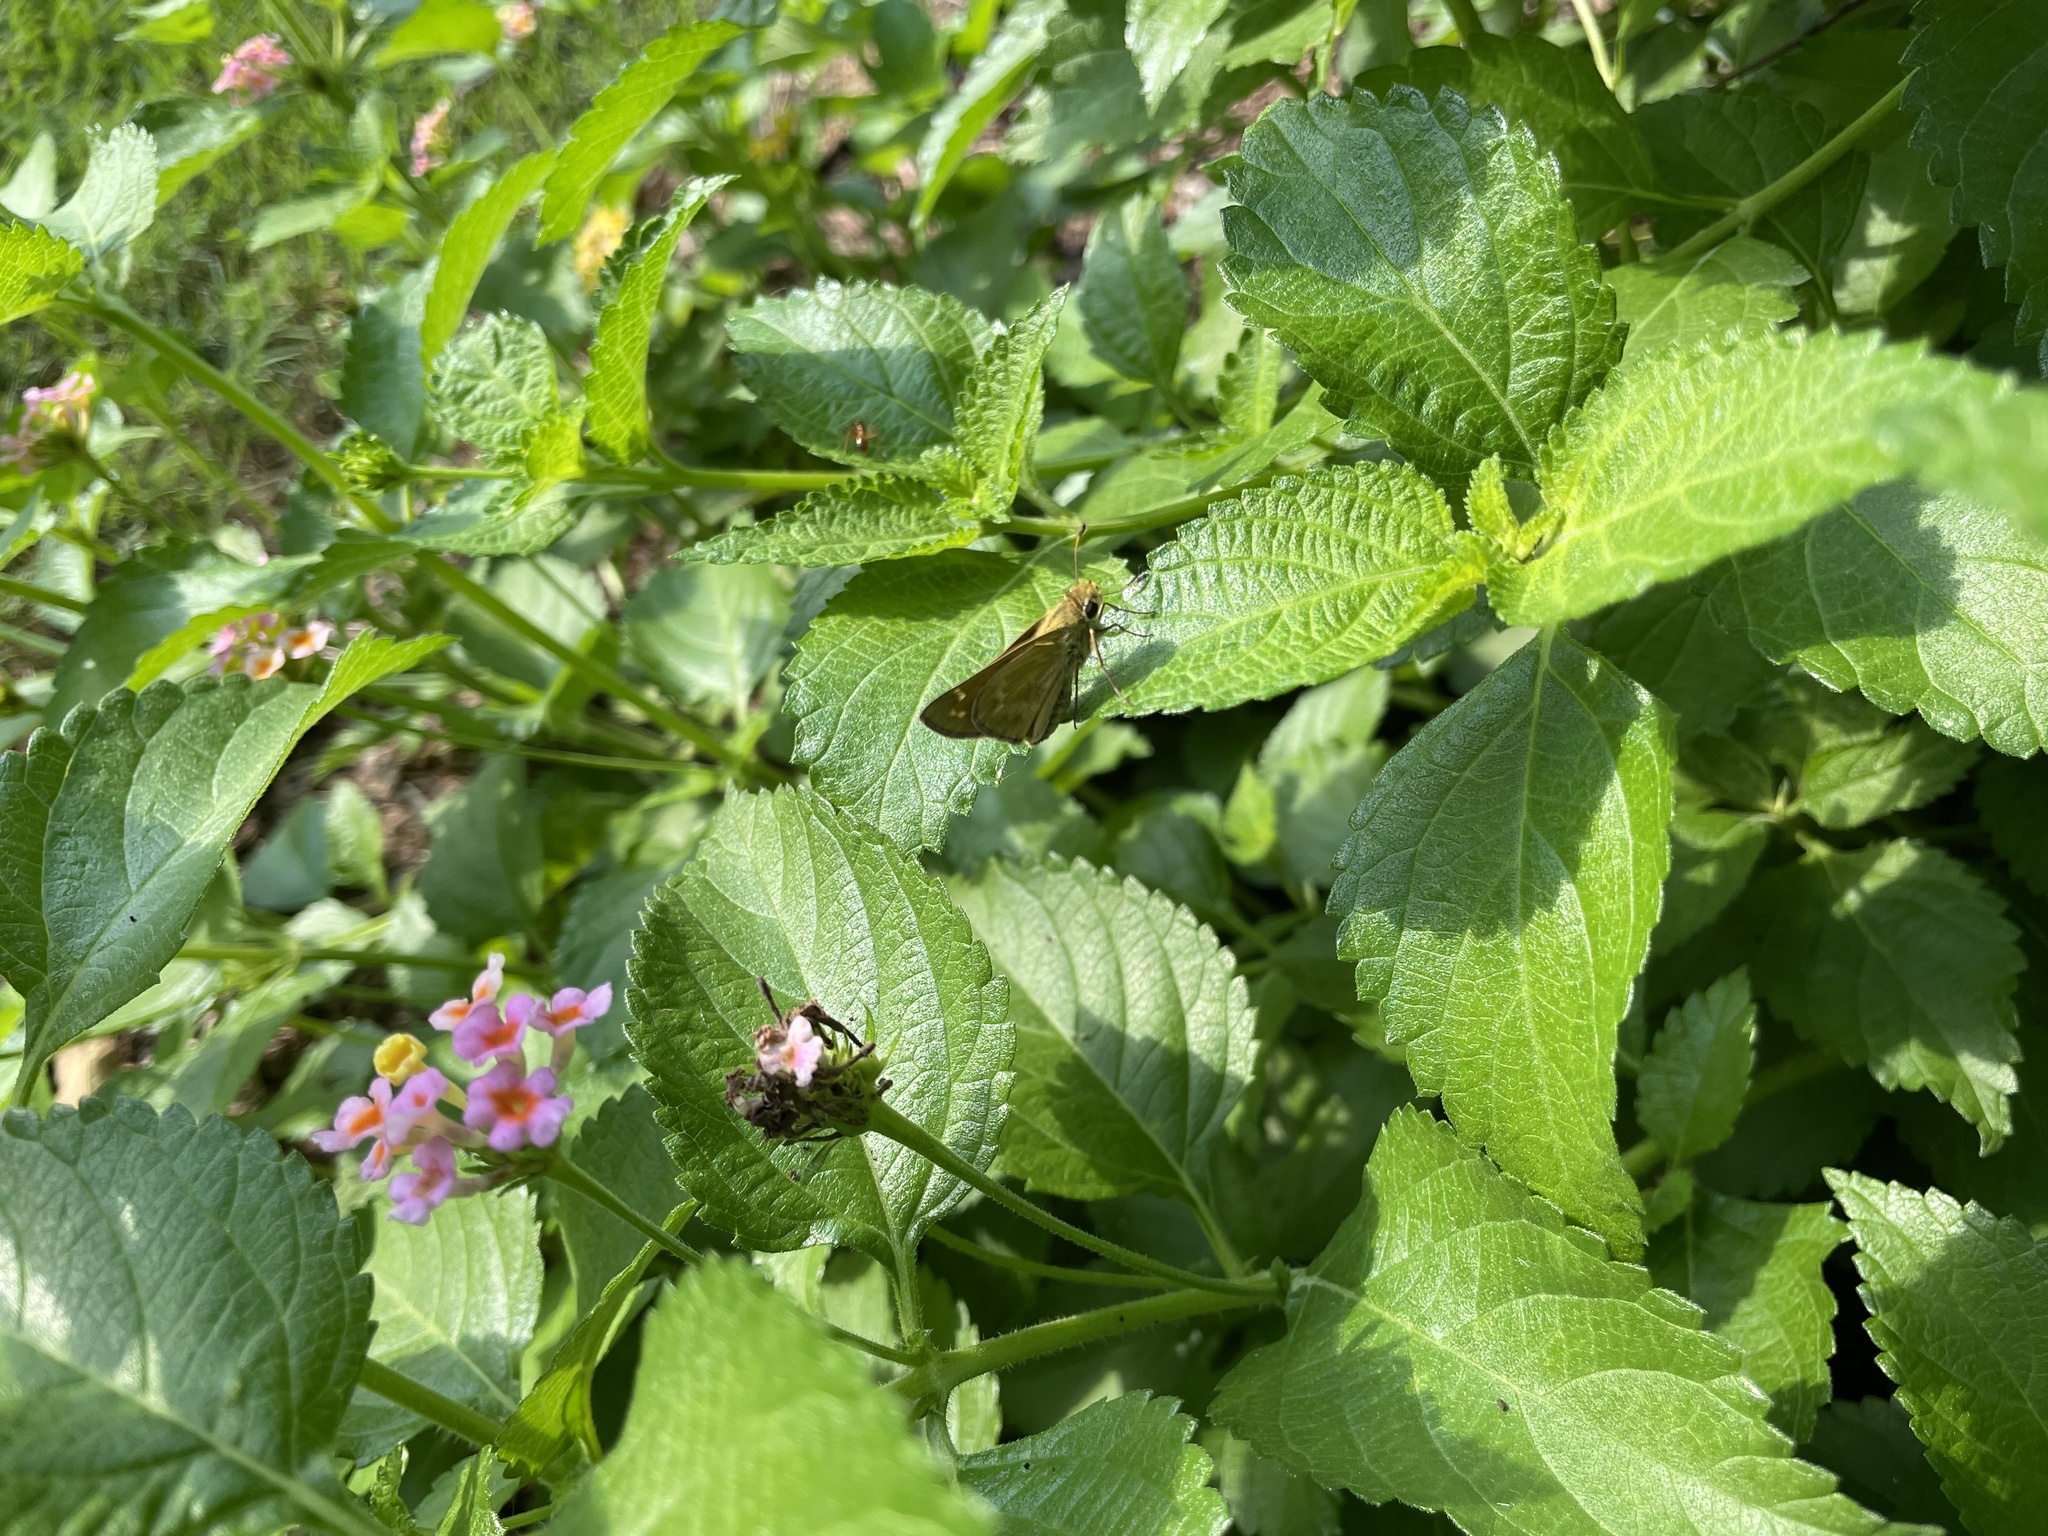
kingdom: Animalia
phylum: Arthropoda
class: Insecta
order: Lepidoptera
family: Hesperiidae
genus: Atalopedes
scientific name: Atalopedes
